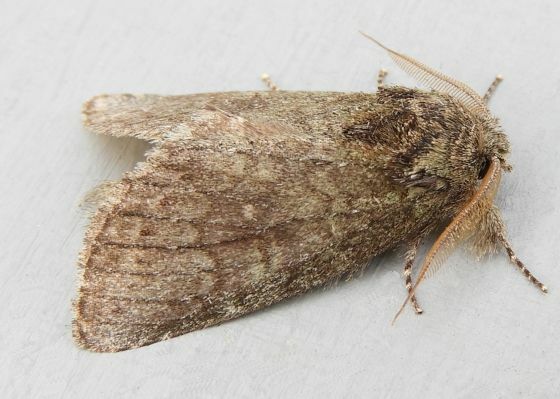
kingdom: Animalia
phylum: Arthropoda
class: Insecta
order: Lepidoptera
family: Notodontidae
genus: Disphragis
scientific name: Disphragis Cecrita guttivitta
